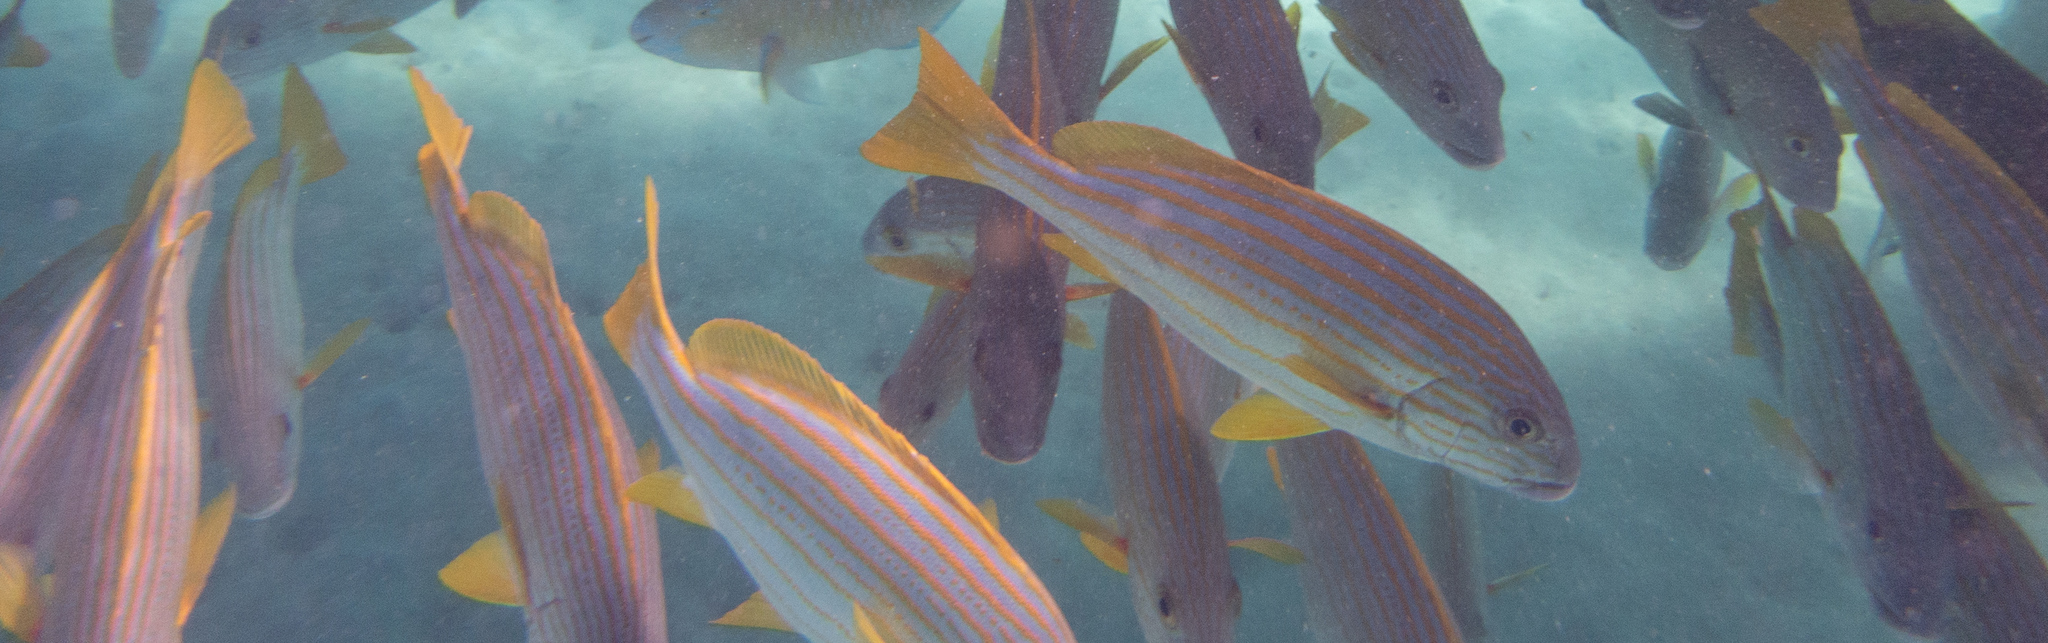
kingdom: Animalia
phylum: Chordata
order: Perciformes
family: Lutjanidae
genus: Lutjanus
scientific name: Lutjanus carponotatus
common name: Spanish flag
